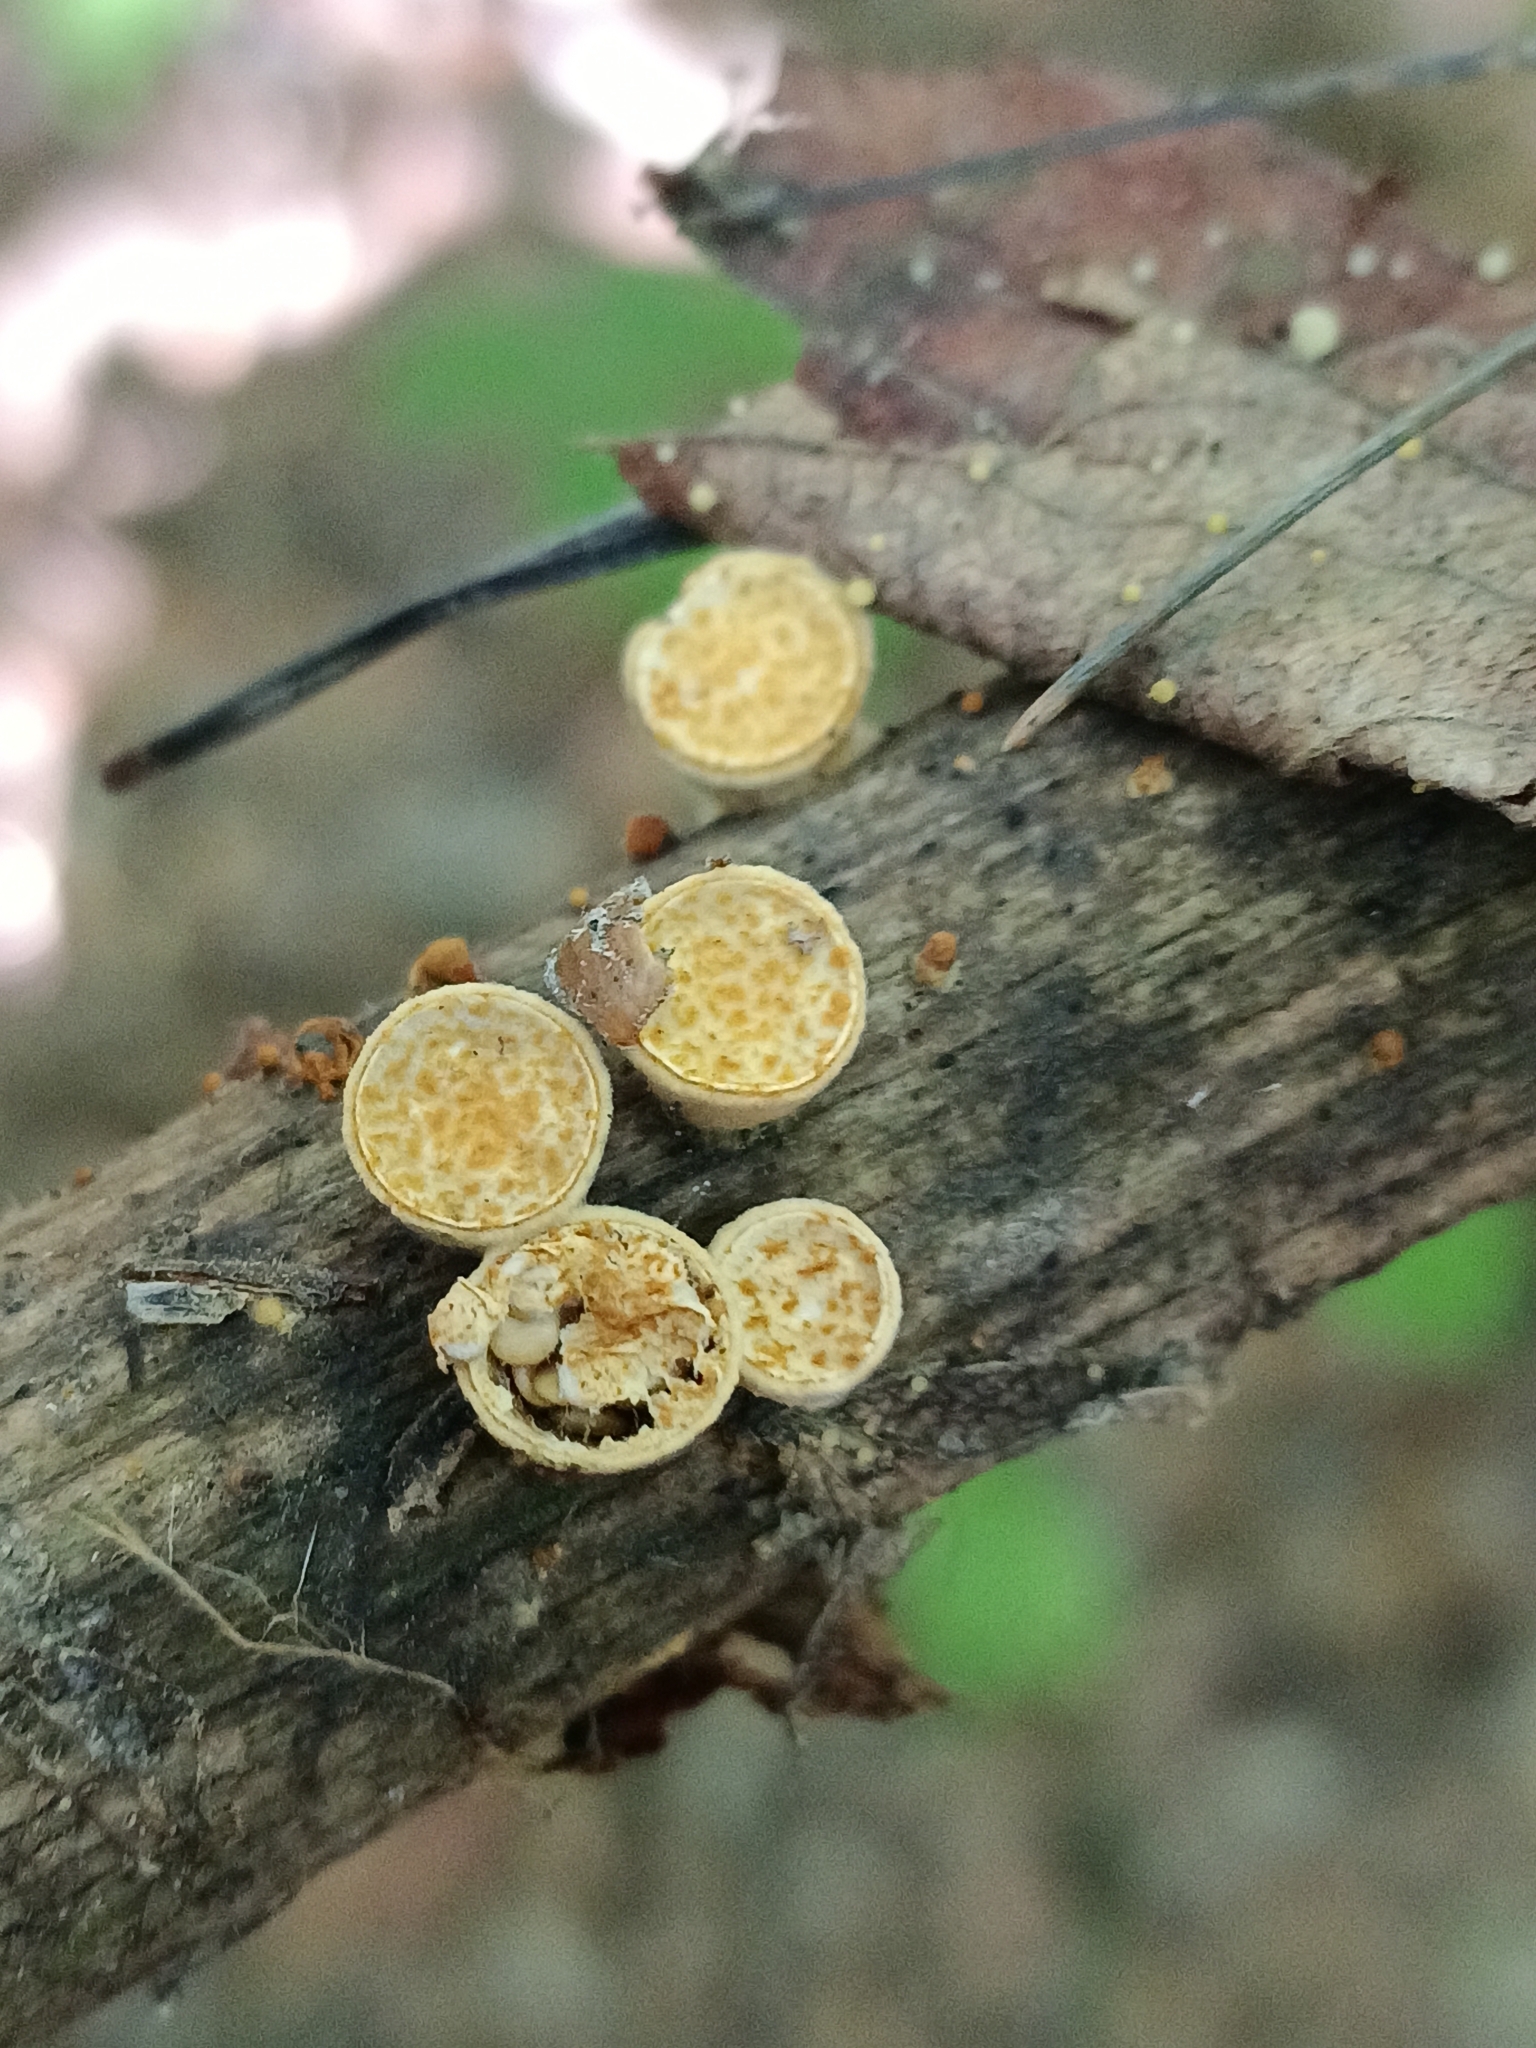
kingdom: Fungi
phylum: Basidiomycota
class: Agaricomycetes
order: Agaricales
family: Nidulariaceae
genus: Crucibulum
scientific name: Crucibulum laeve
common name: Common bird's nest
